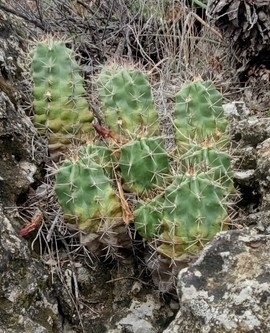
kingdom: Plantae
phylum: Tracheophyta
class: Magnoliopsida
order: Caryophyllales
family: Cactaceae
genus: Echinocereus
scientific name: Echinocereus coccineus
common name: Scarlet hedgehog cactus
